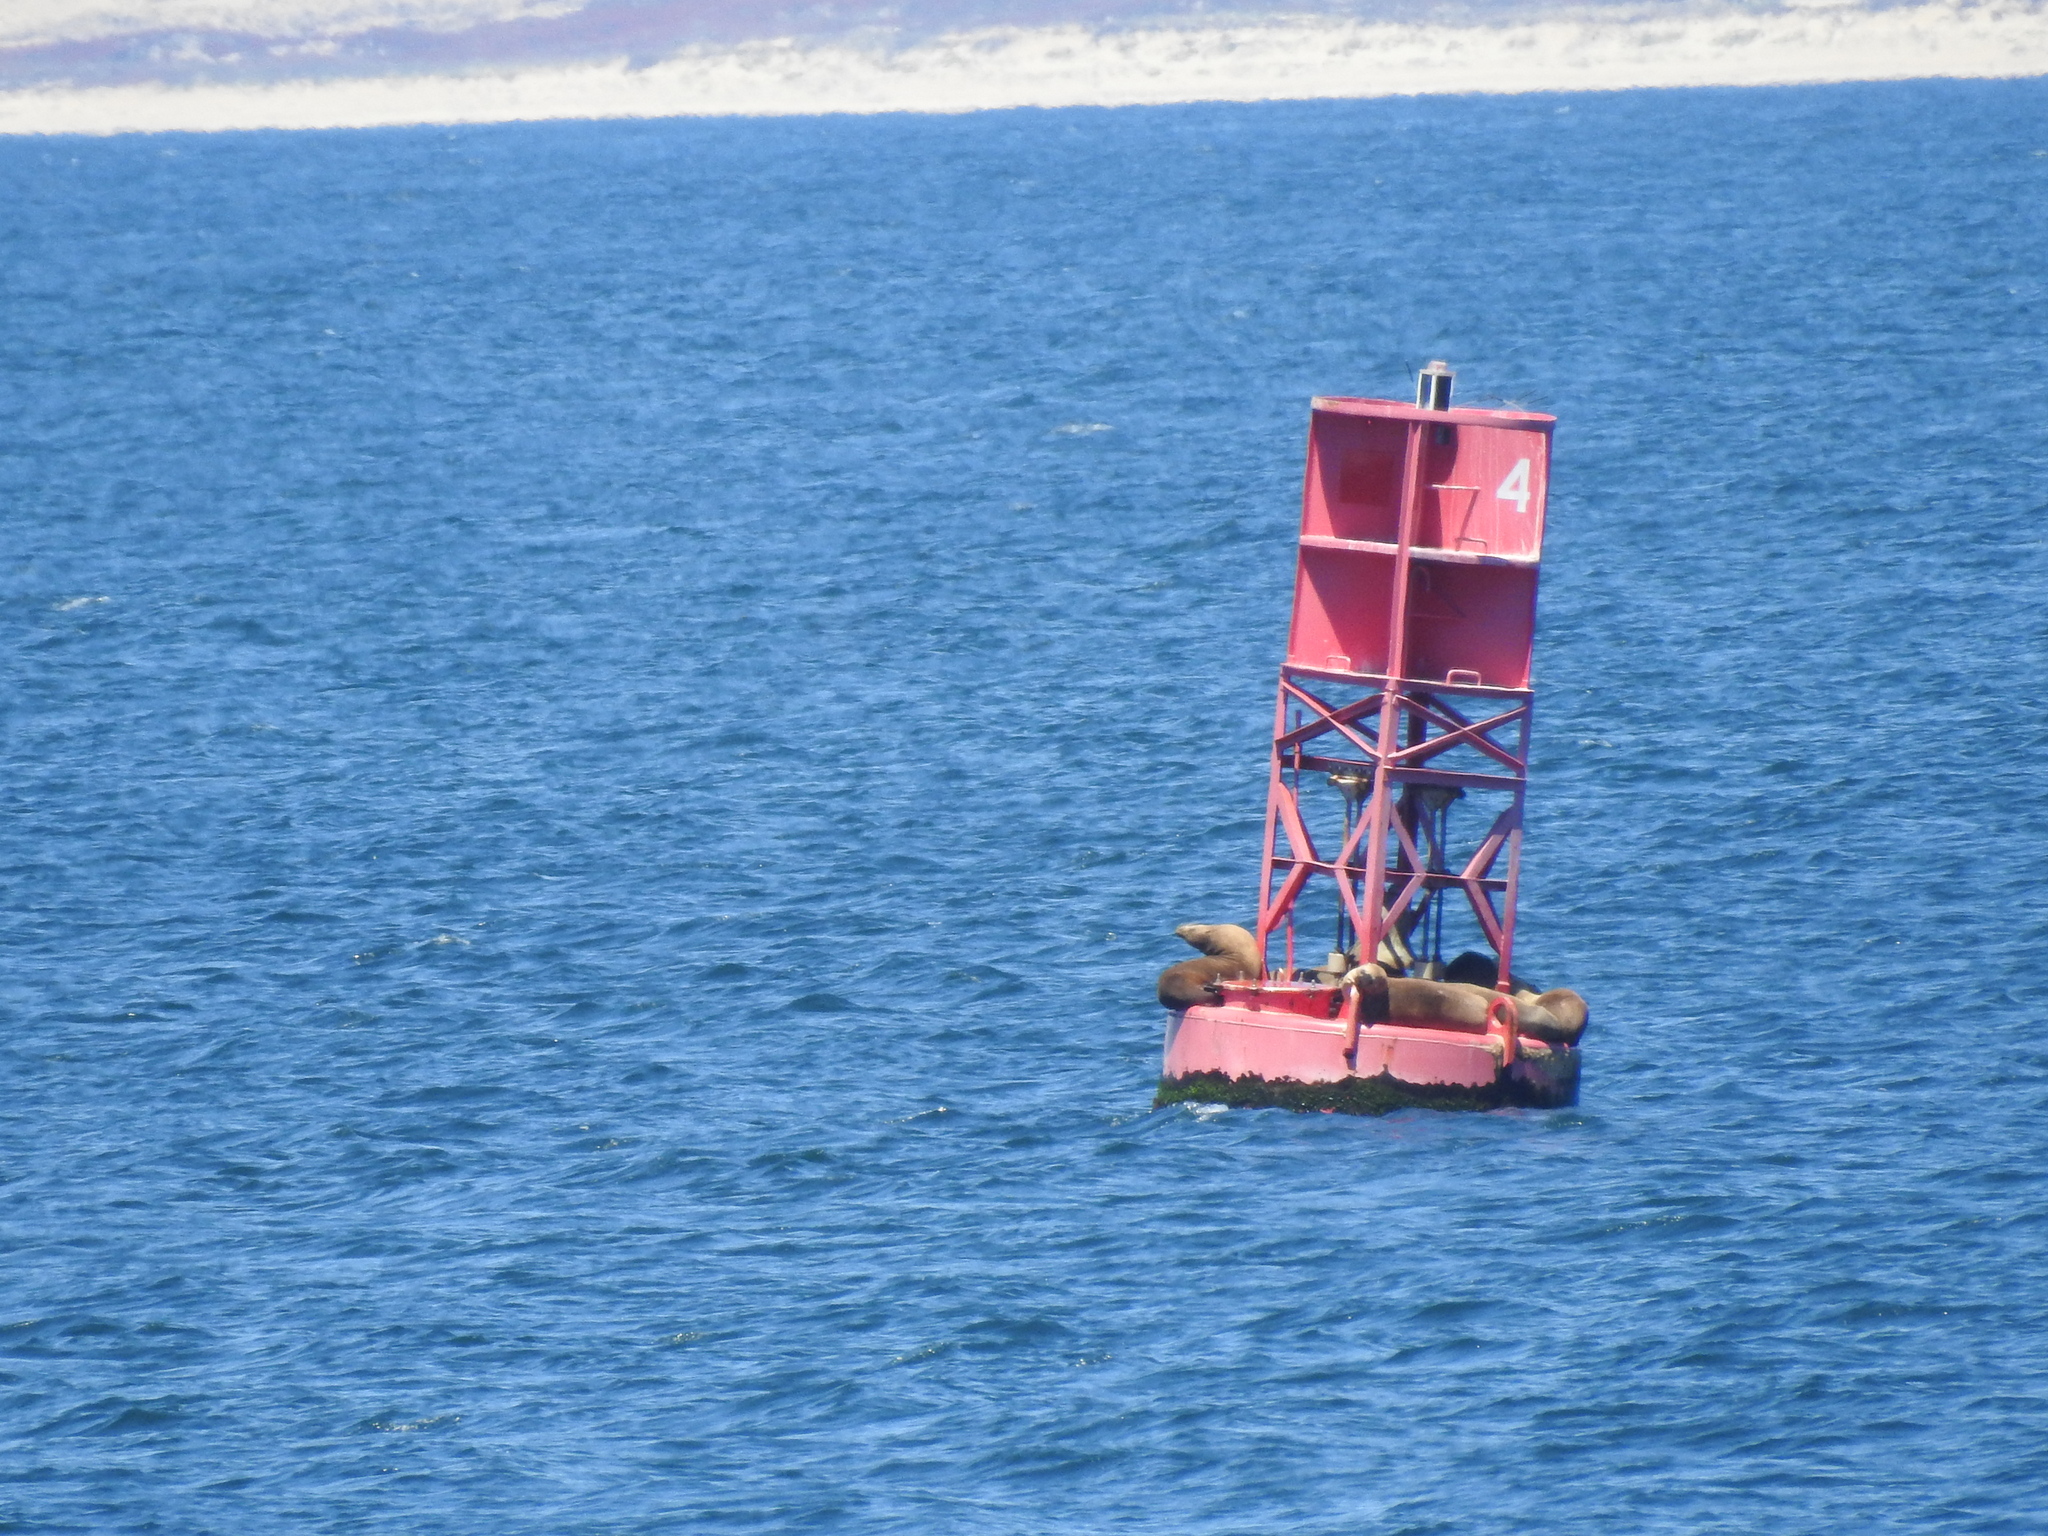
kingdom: Animalia
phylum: Chordata
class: Mammalia
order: Carnivora
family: Otariidae
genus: Eumetopias
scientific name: Eumetopias jubatus
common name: Steller sea lion
